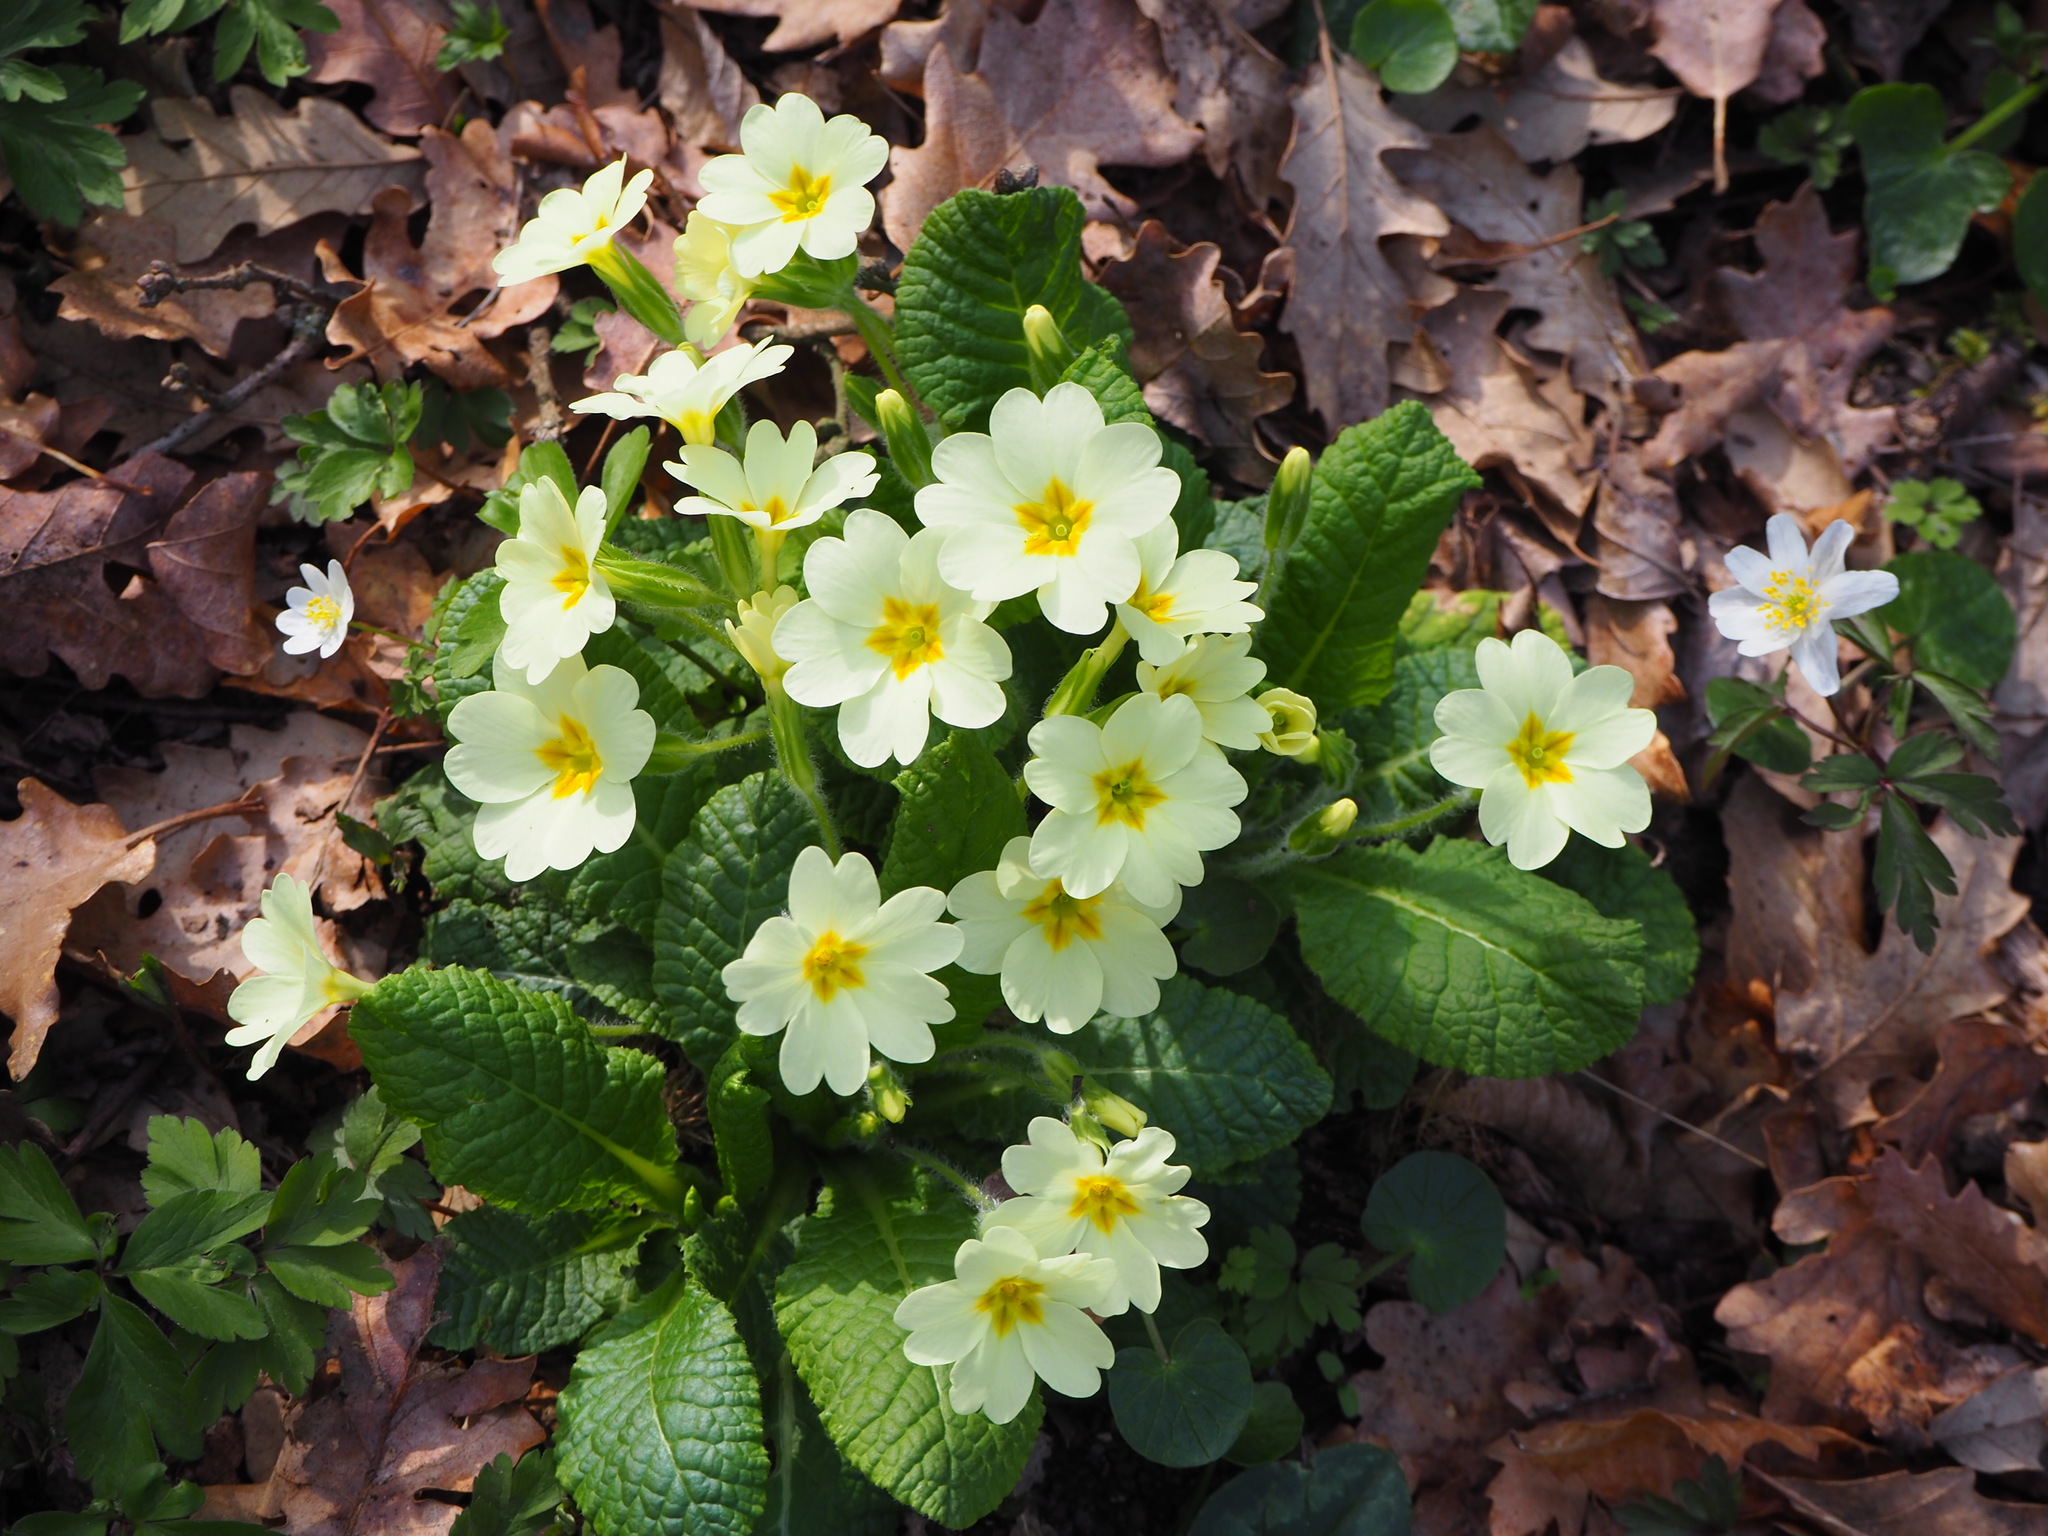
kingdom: Plantae
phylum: Tracheophyta
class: Magnoliopsida
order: Ericales
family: Primulaceae
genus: Primula
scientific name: Primula vulgaris
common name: Primrose
